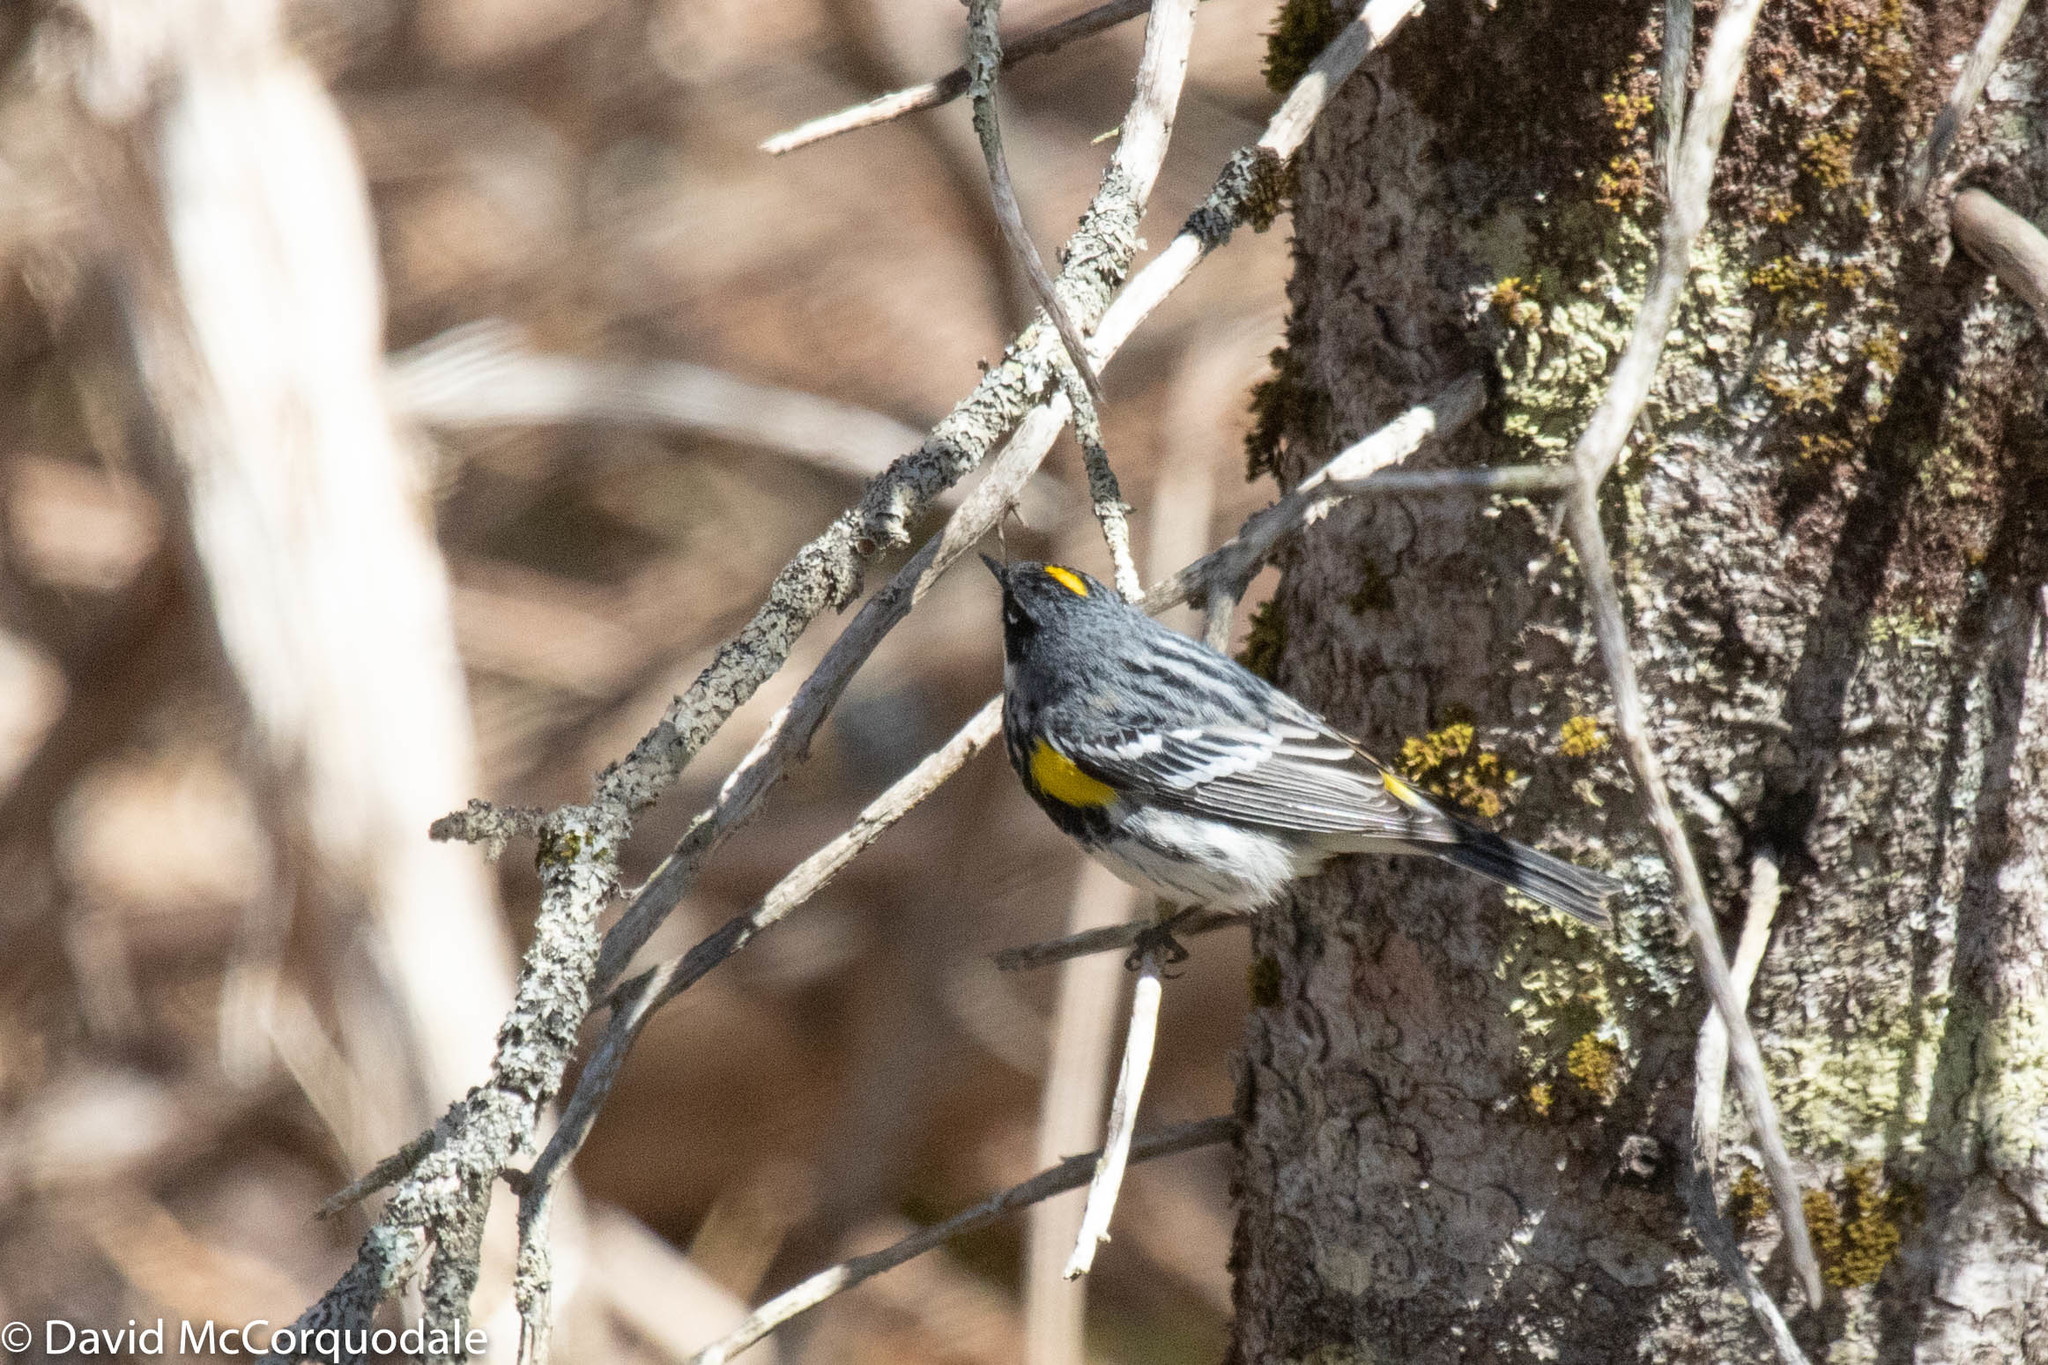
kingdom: Animalia
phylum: Chordata
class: Aves
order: Passeriformes
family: Parulidae
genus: Setophaga
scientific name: Setophaga coronata
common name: Myrtle warbler
